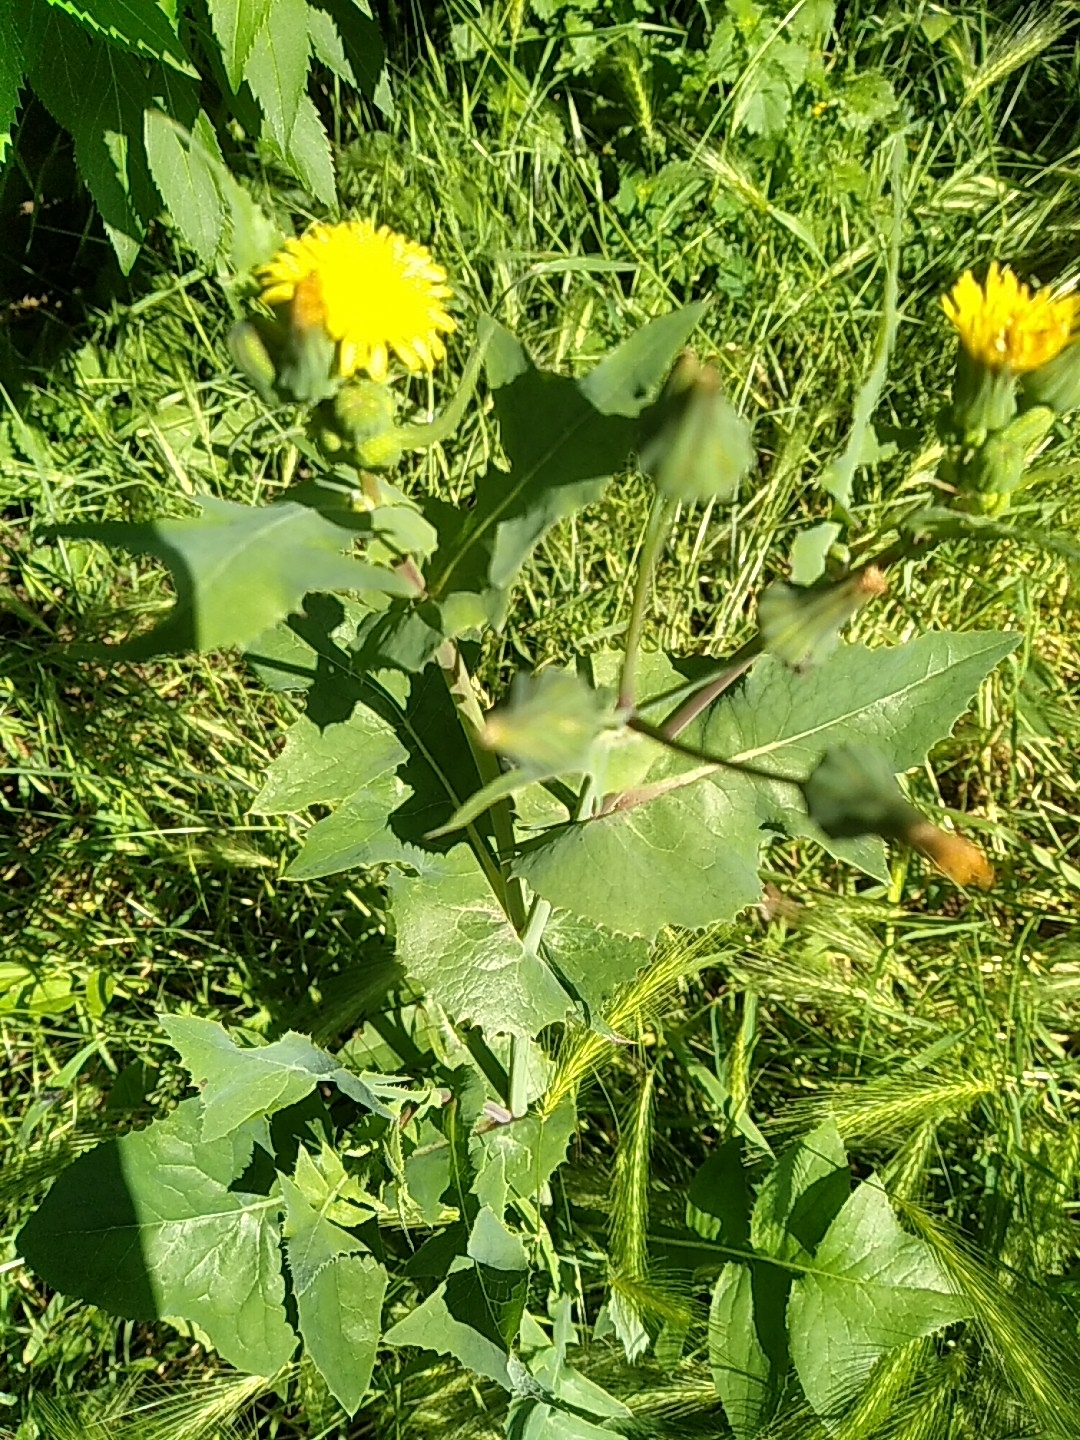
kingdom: Plantae
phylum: Tracheophyta
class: Magnoliopsida
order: Asterales
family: Asteraceae
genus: Sonchus
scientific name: Sonchus oleraceus
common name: Common sowthistle
